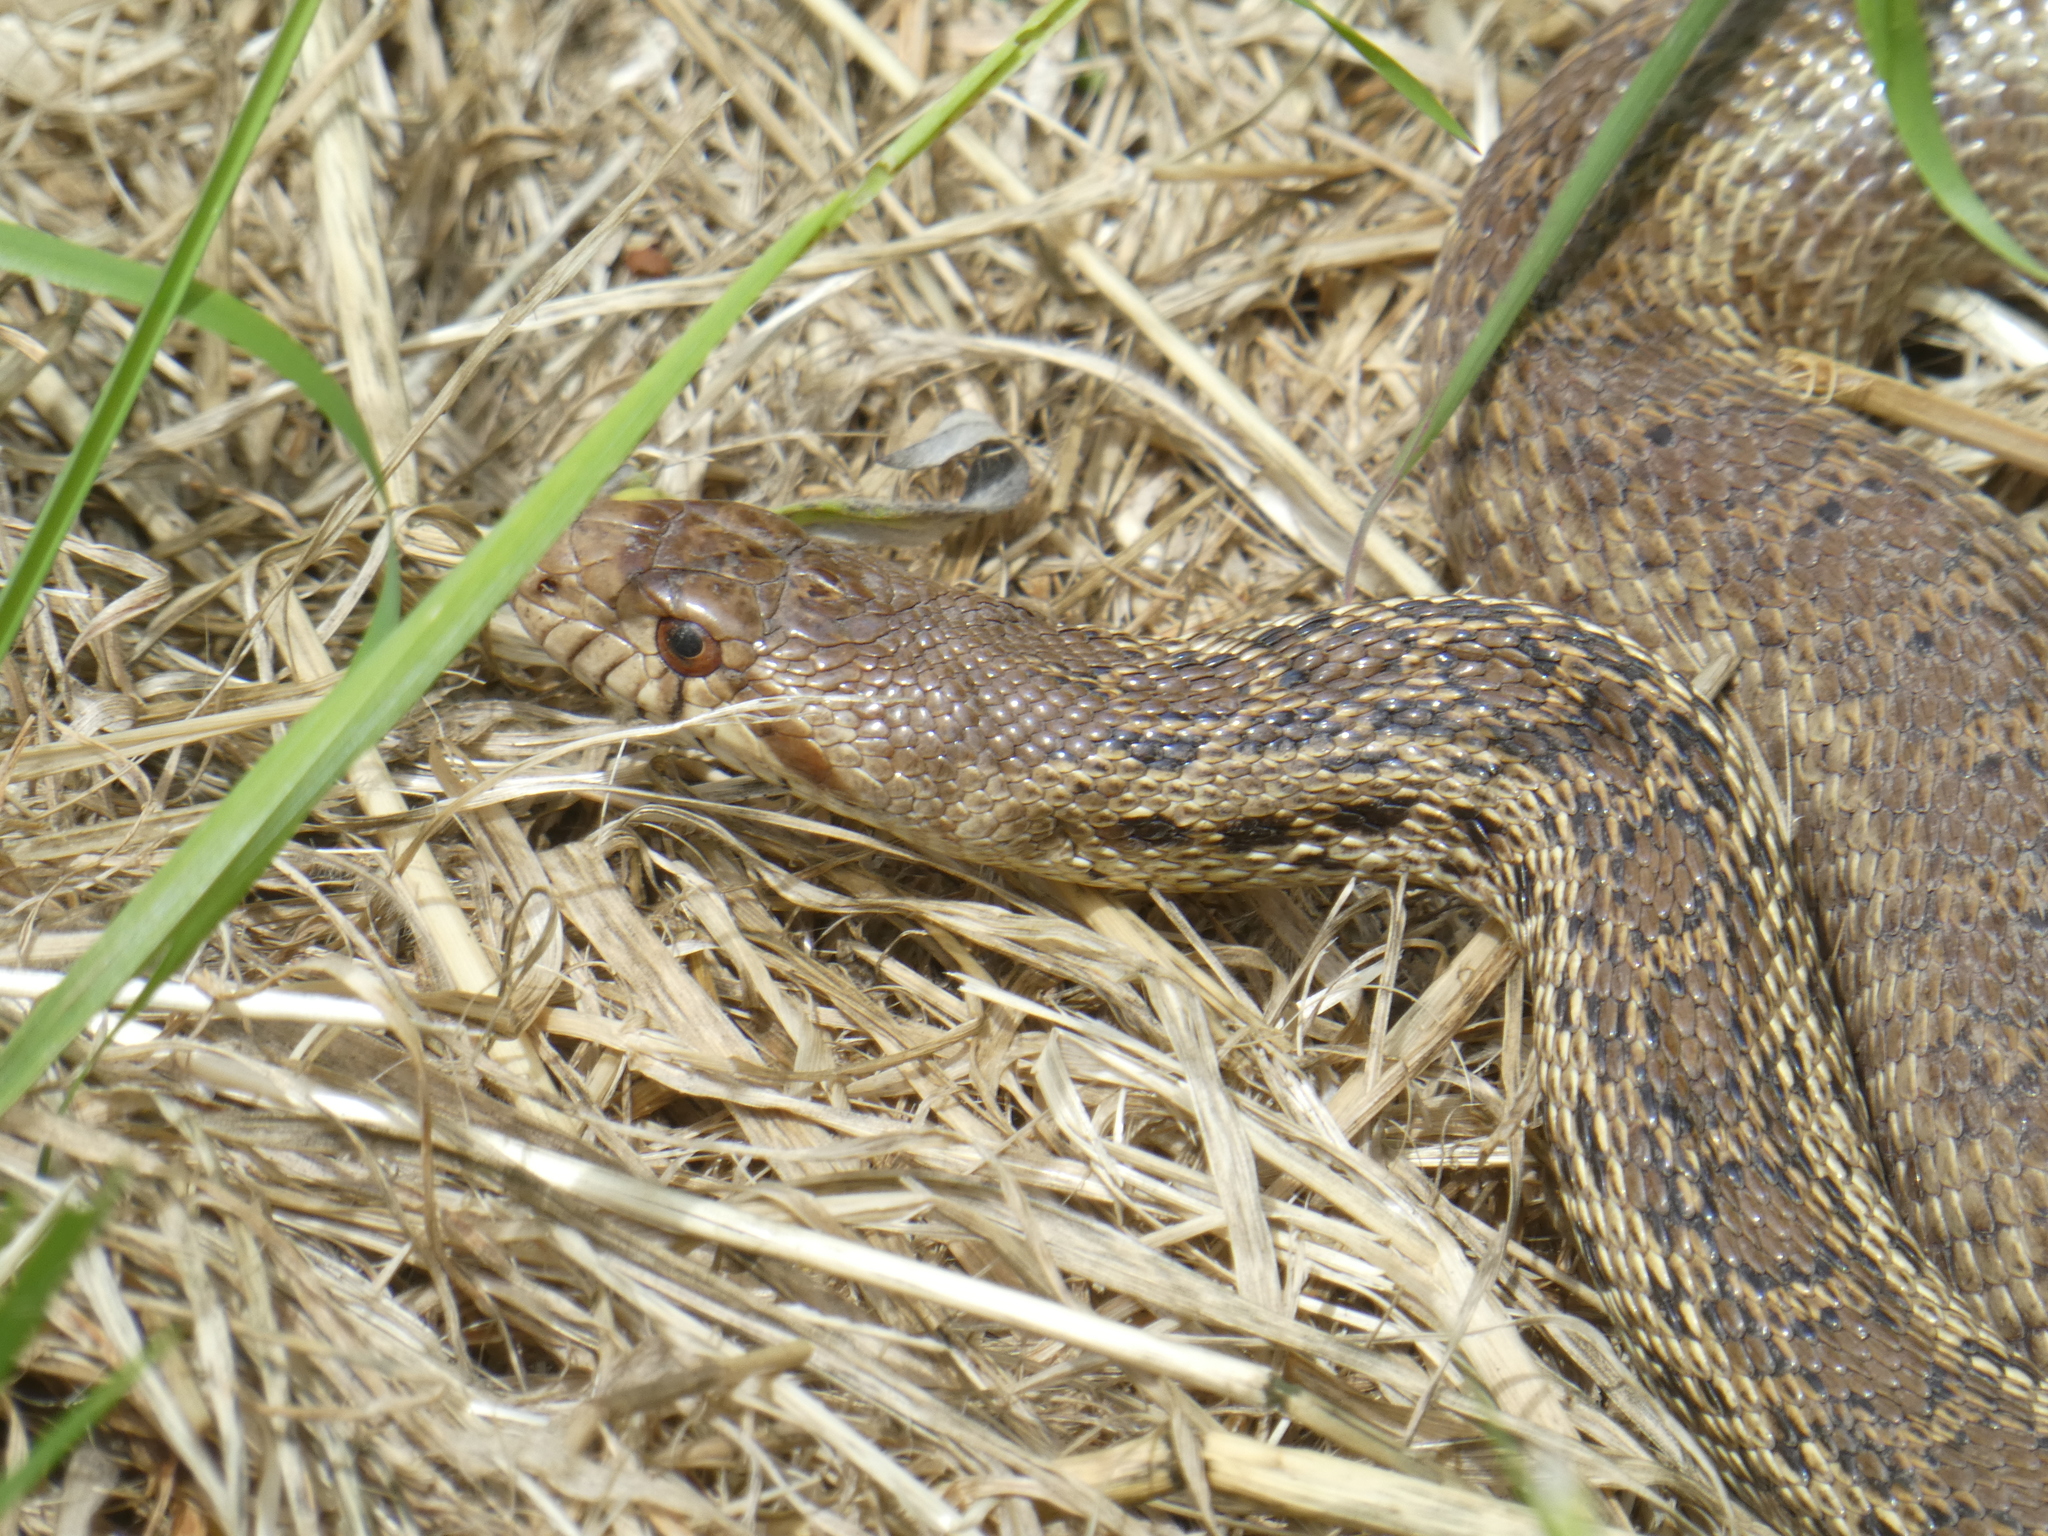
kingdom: Animalia
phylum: Chordata
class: Squamata
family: Colubridae
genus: Pituophis
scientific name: Pituophis catenifer
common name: Gopher snake
